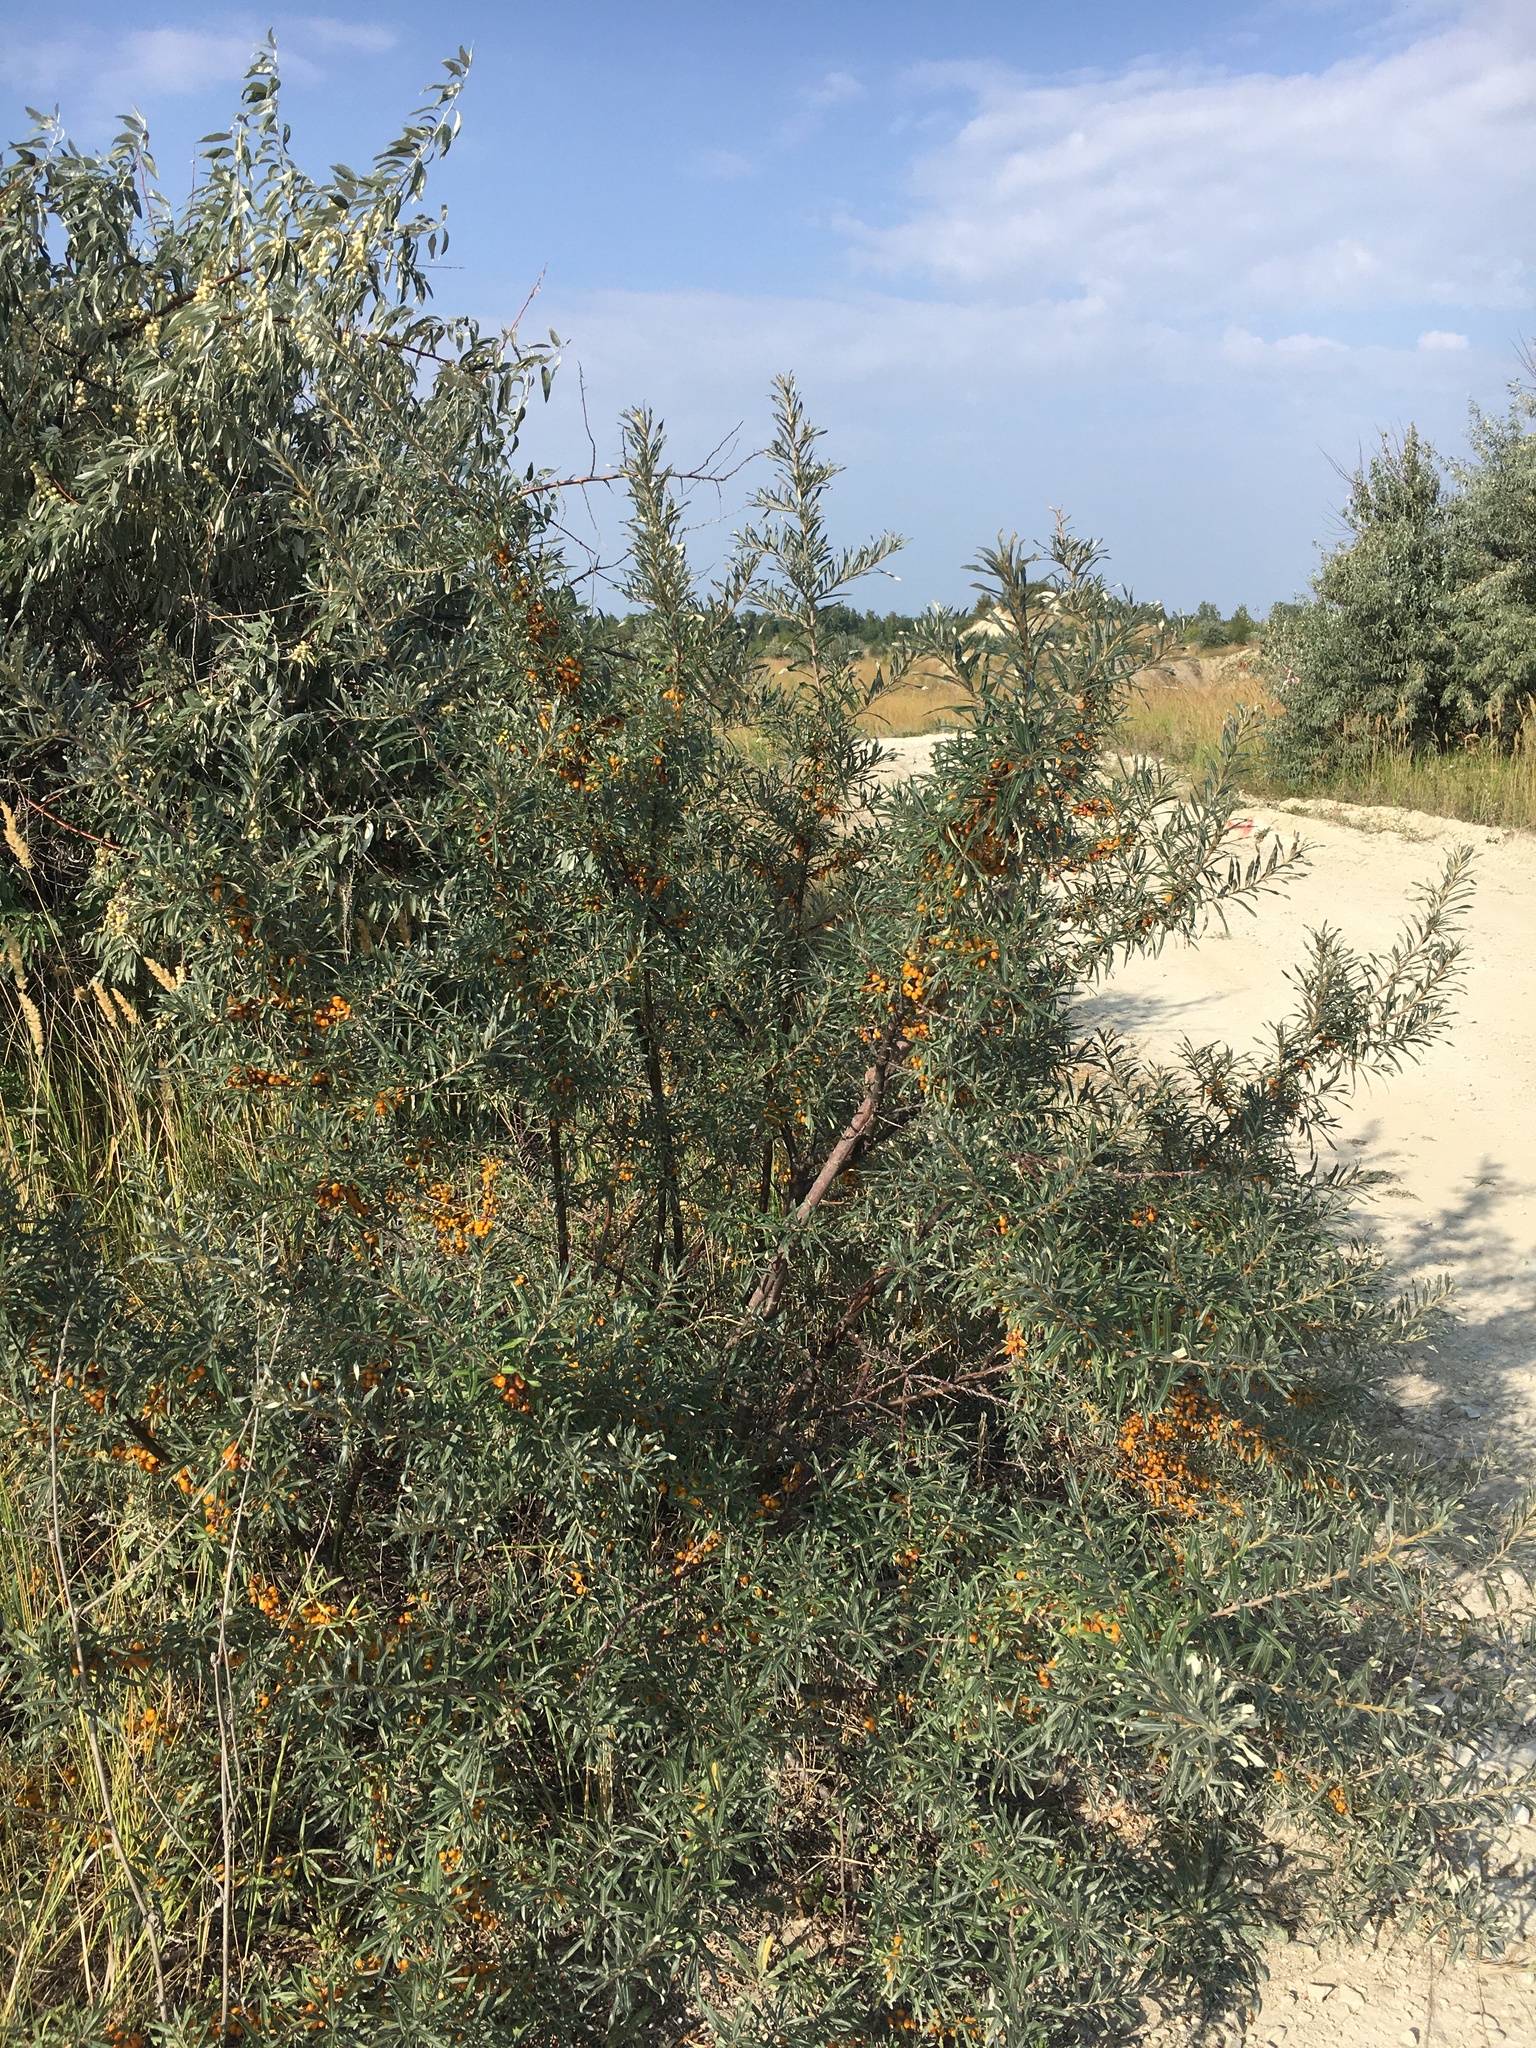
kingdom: Plantae
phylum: Tracheophyta
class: Magnoliopsida
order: Rosales
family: Elaeagnaceae
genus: Hippophae
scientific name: Hippophae rhamnoides
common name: Sea-buckthorn
